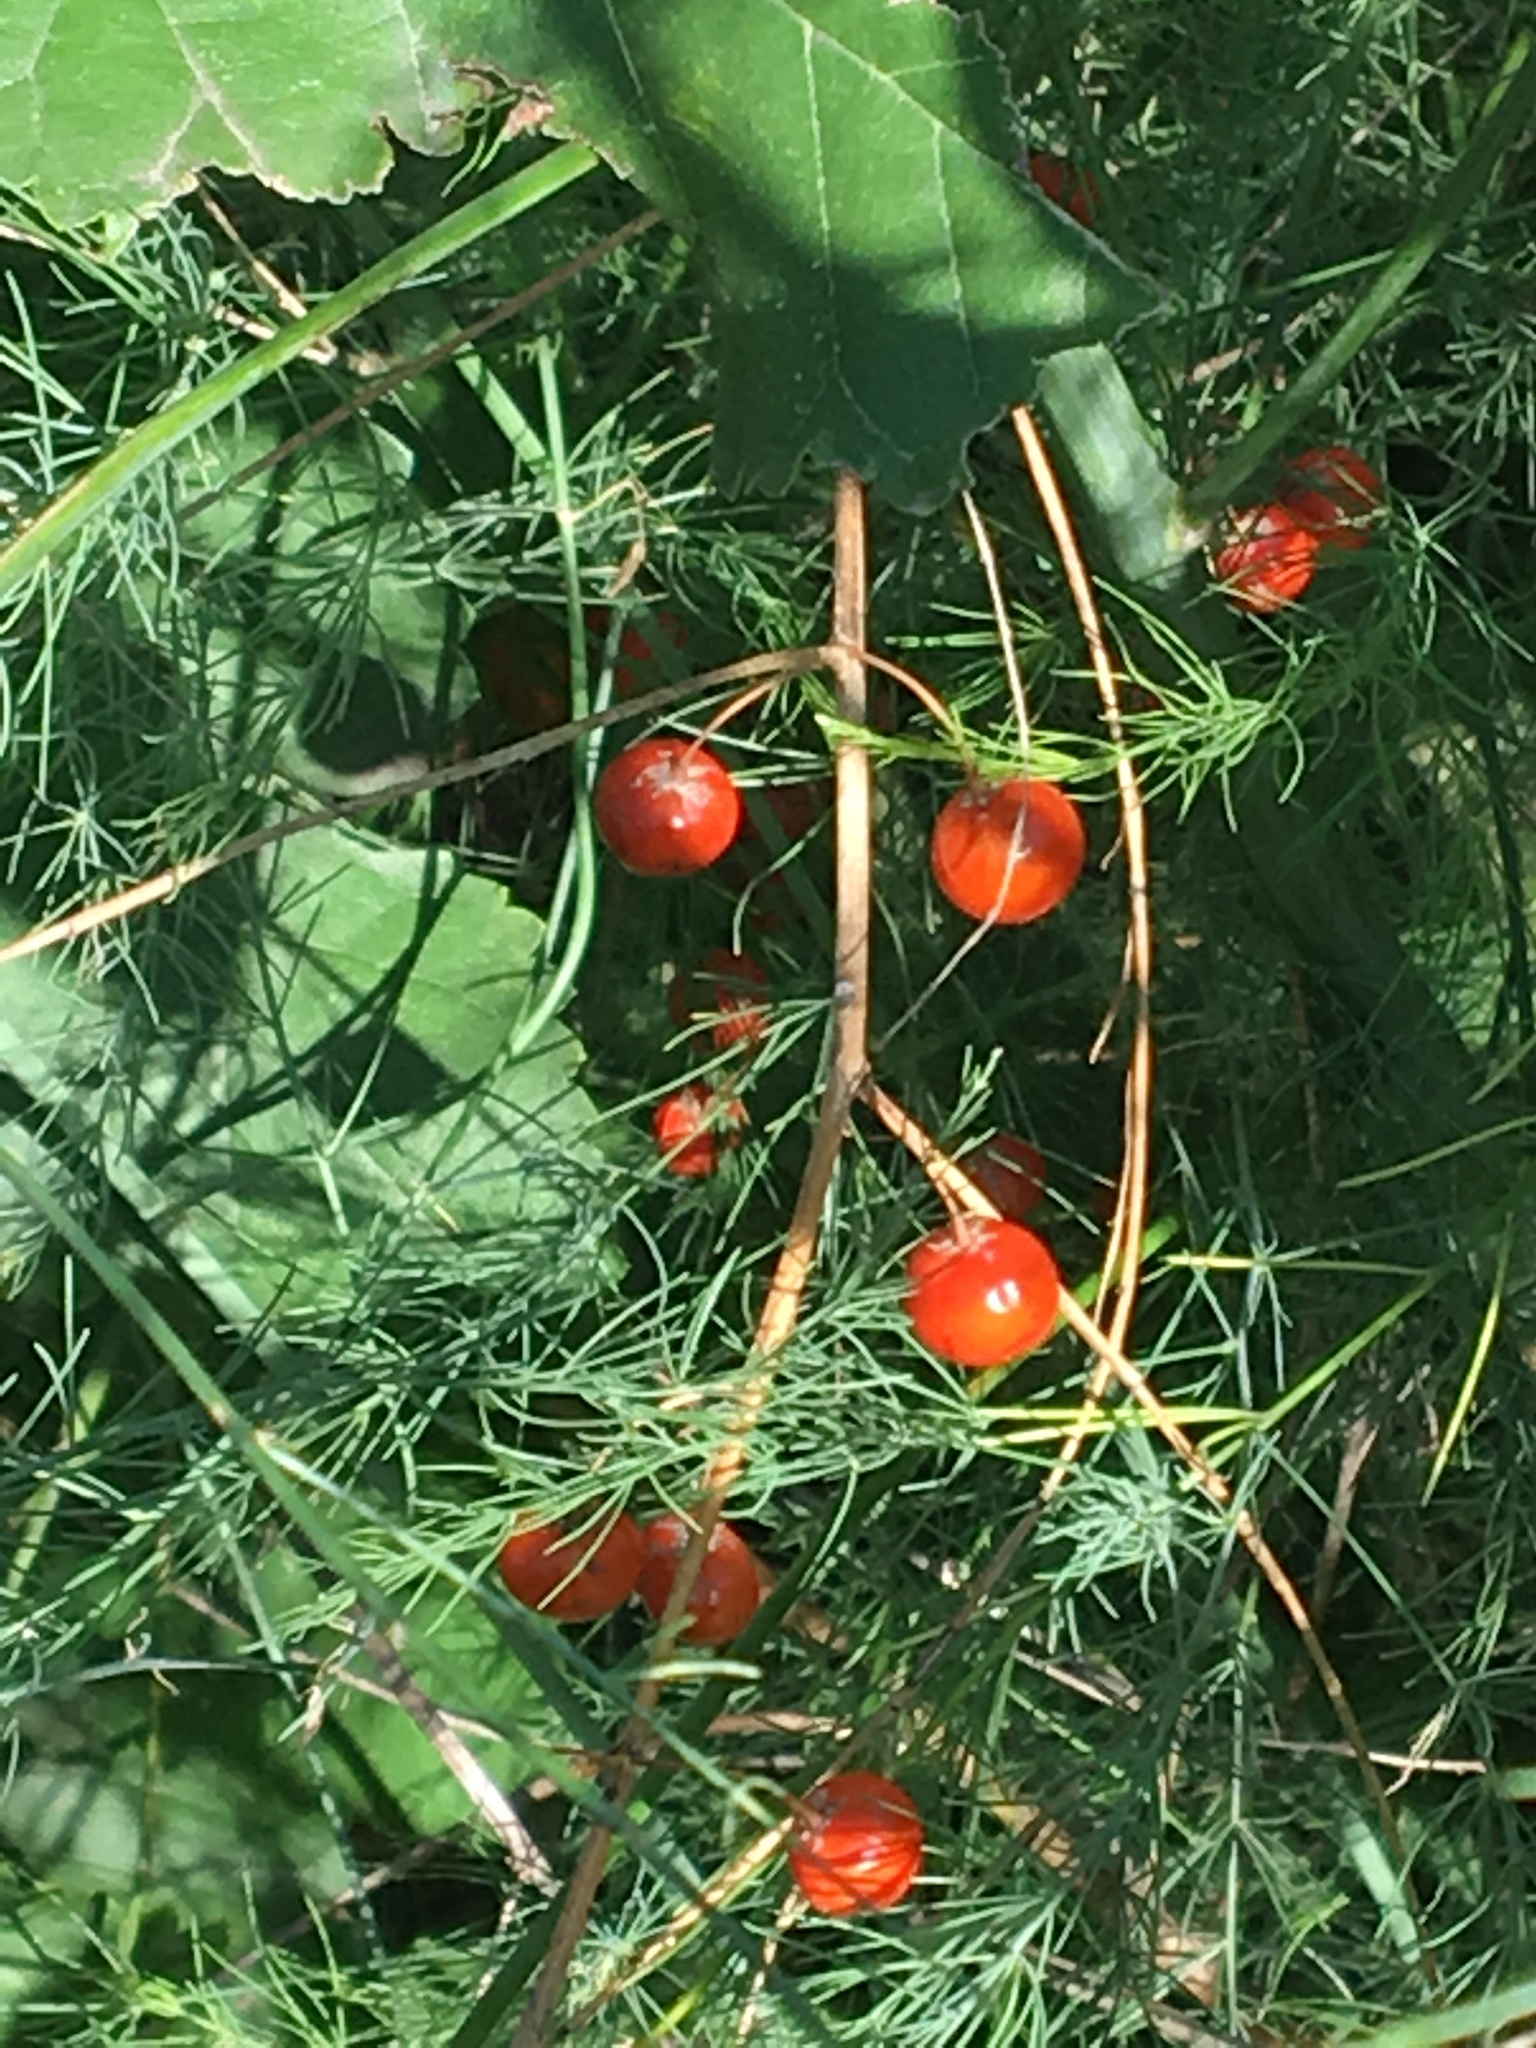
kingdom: Plantae
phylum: Tracheophyta
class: Liliopsida
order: Asparagales
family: Asparagaceae
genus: Asparagus
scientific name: Asparagus officinalis
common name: Garden asparagus
